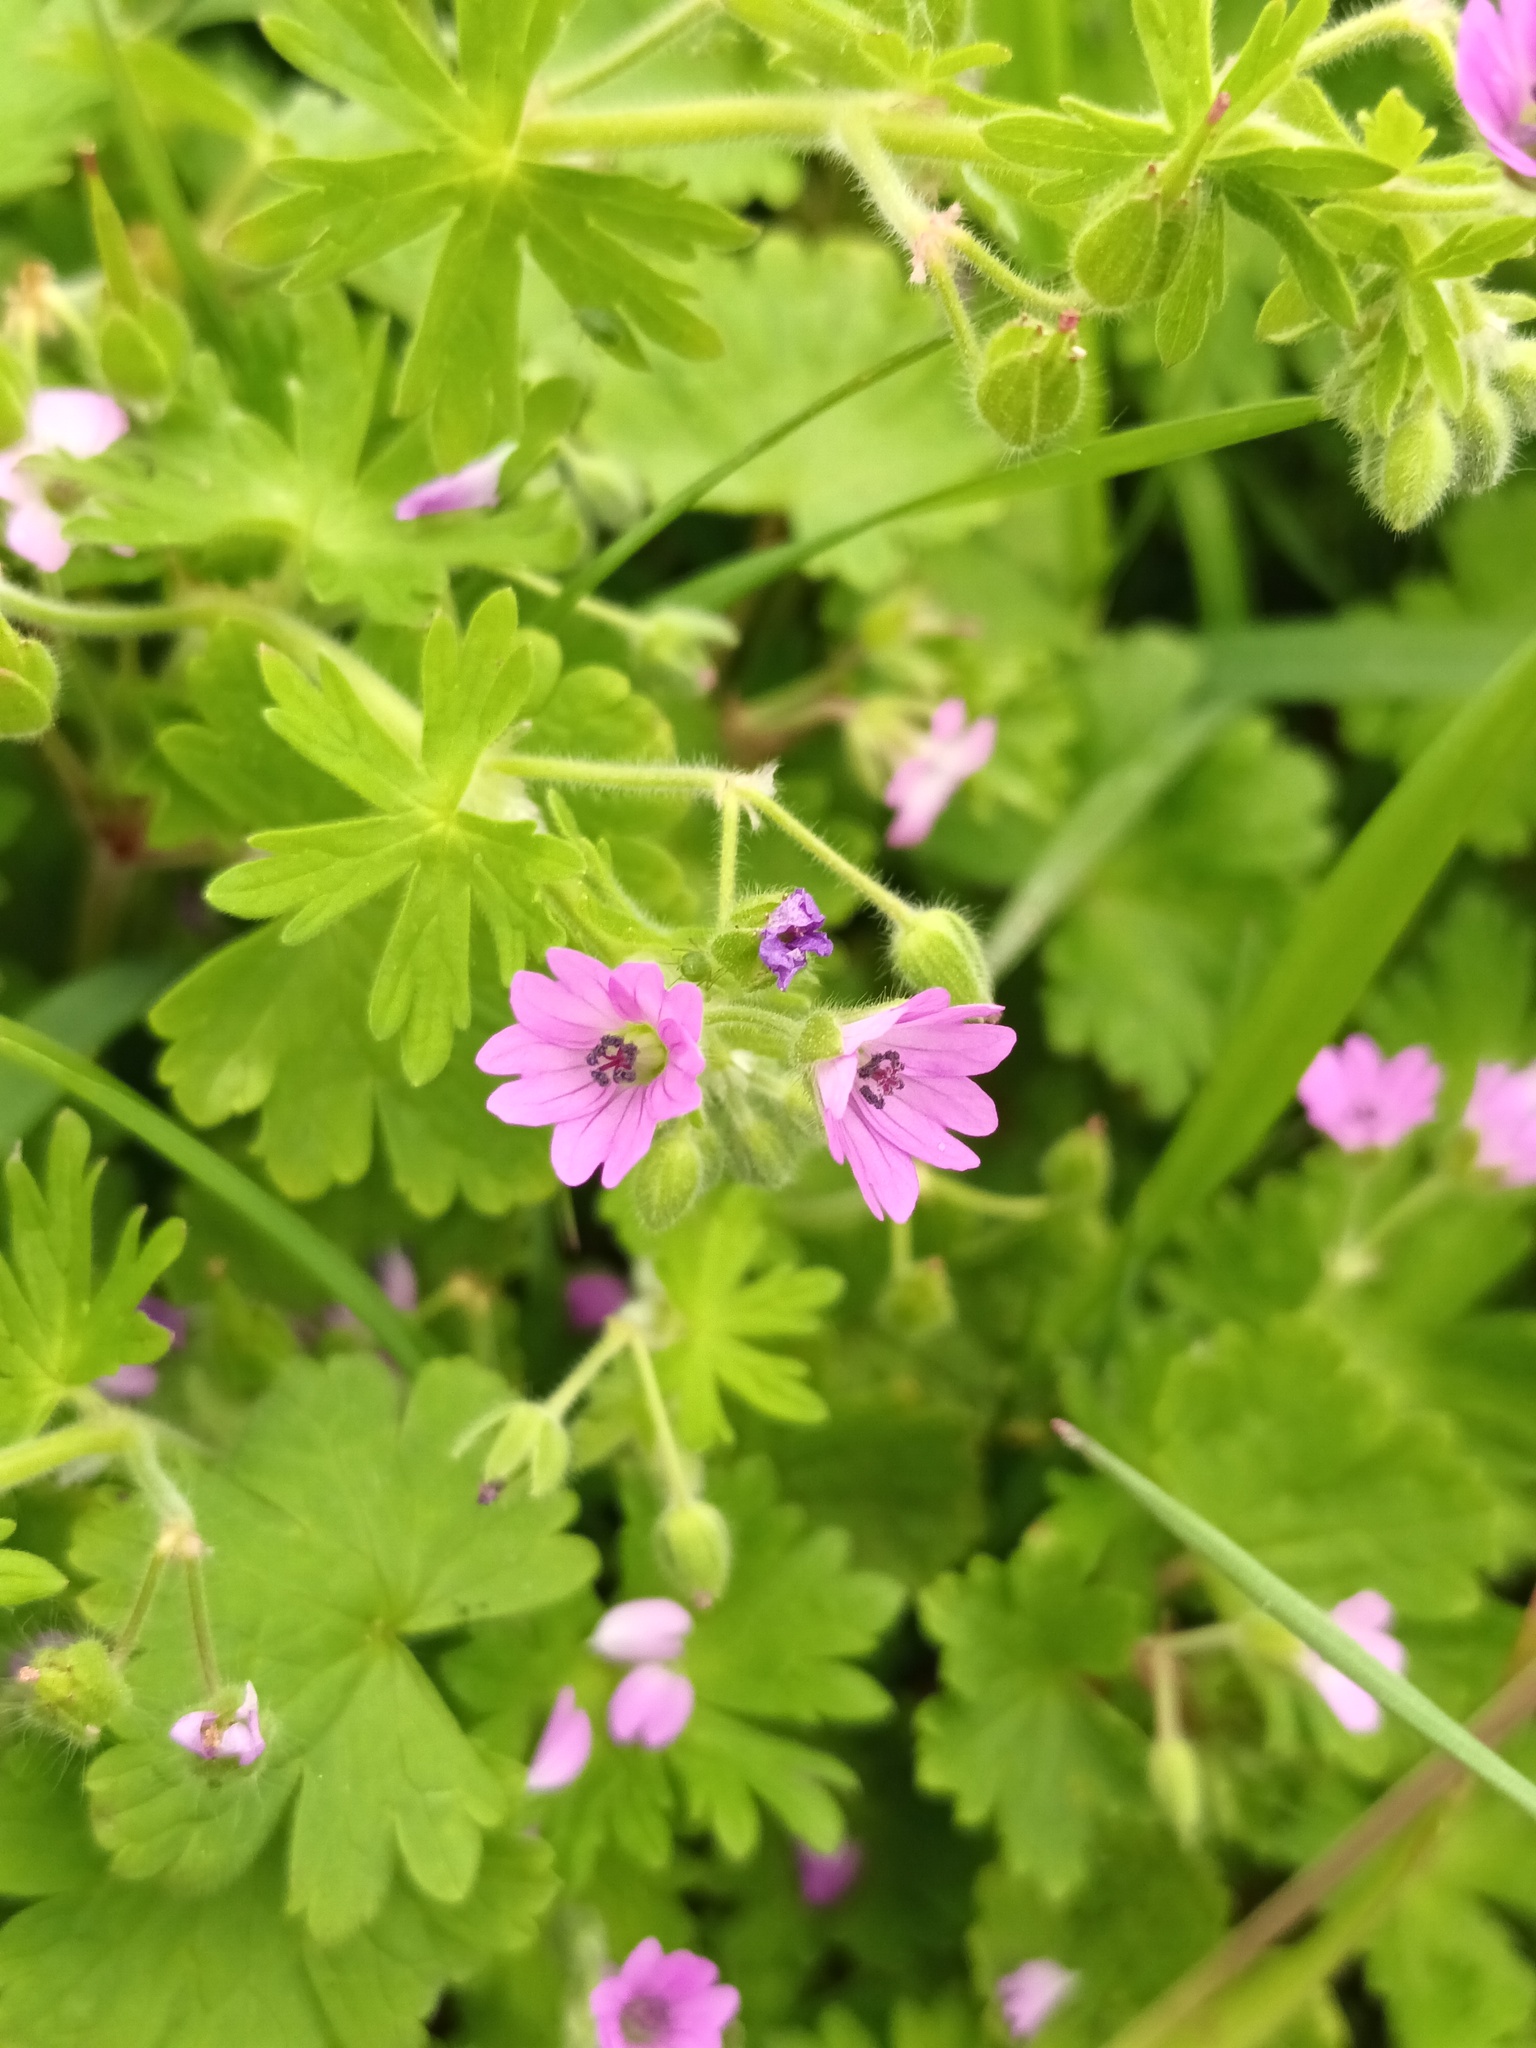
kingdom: Plantae
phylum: Tracheophyta
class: Magnoliopsida
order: Geraniales
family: Geraniaceae
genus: Geranium
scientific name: Geranium molle
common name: Dove's-foot crane's-bill
